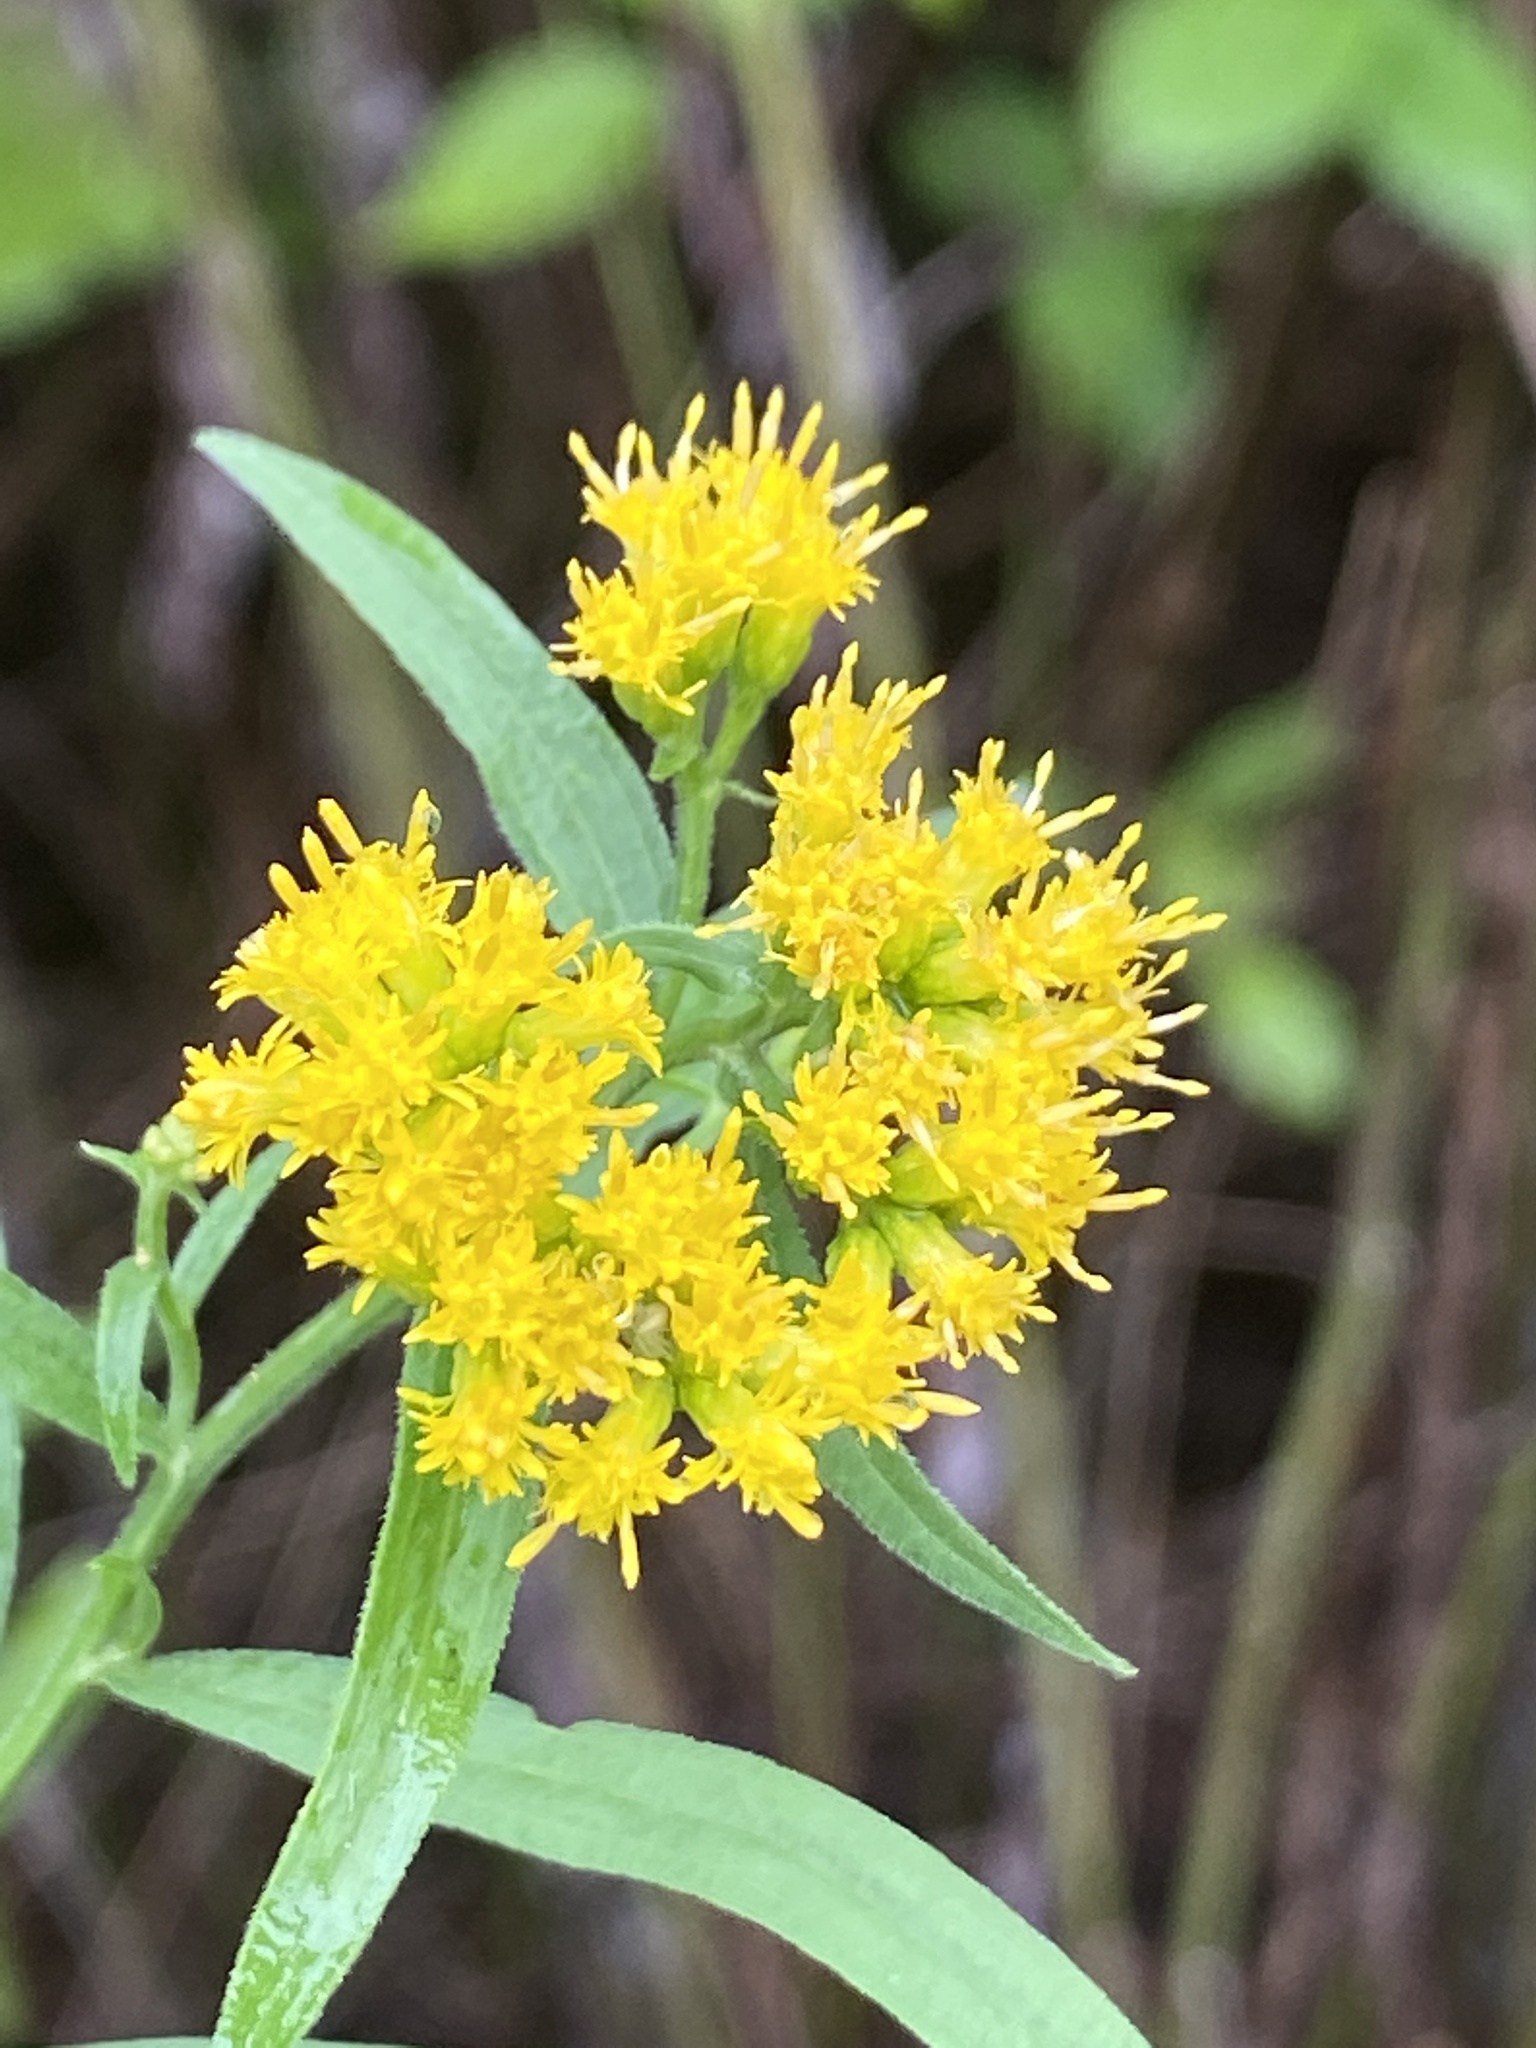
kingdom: Plantae
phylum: Tracheophyta
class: Magnoliopsida
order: Asterales
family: Asteraceae
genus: Euthamia
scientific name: Euthamia graminifolia
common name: Common goldentop
